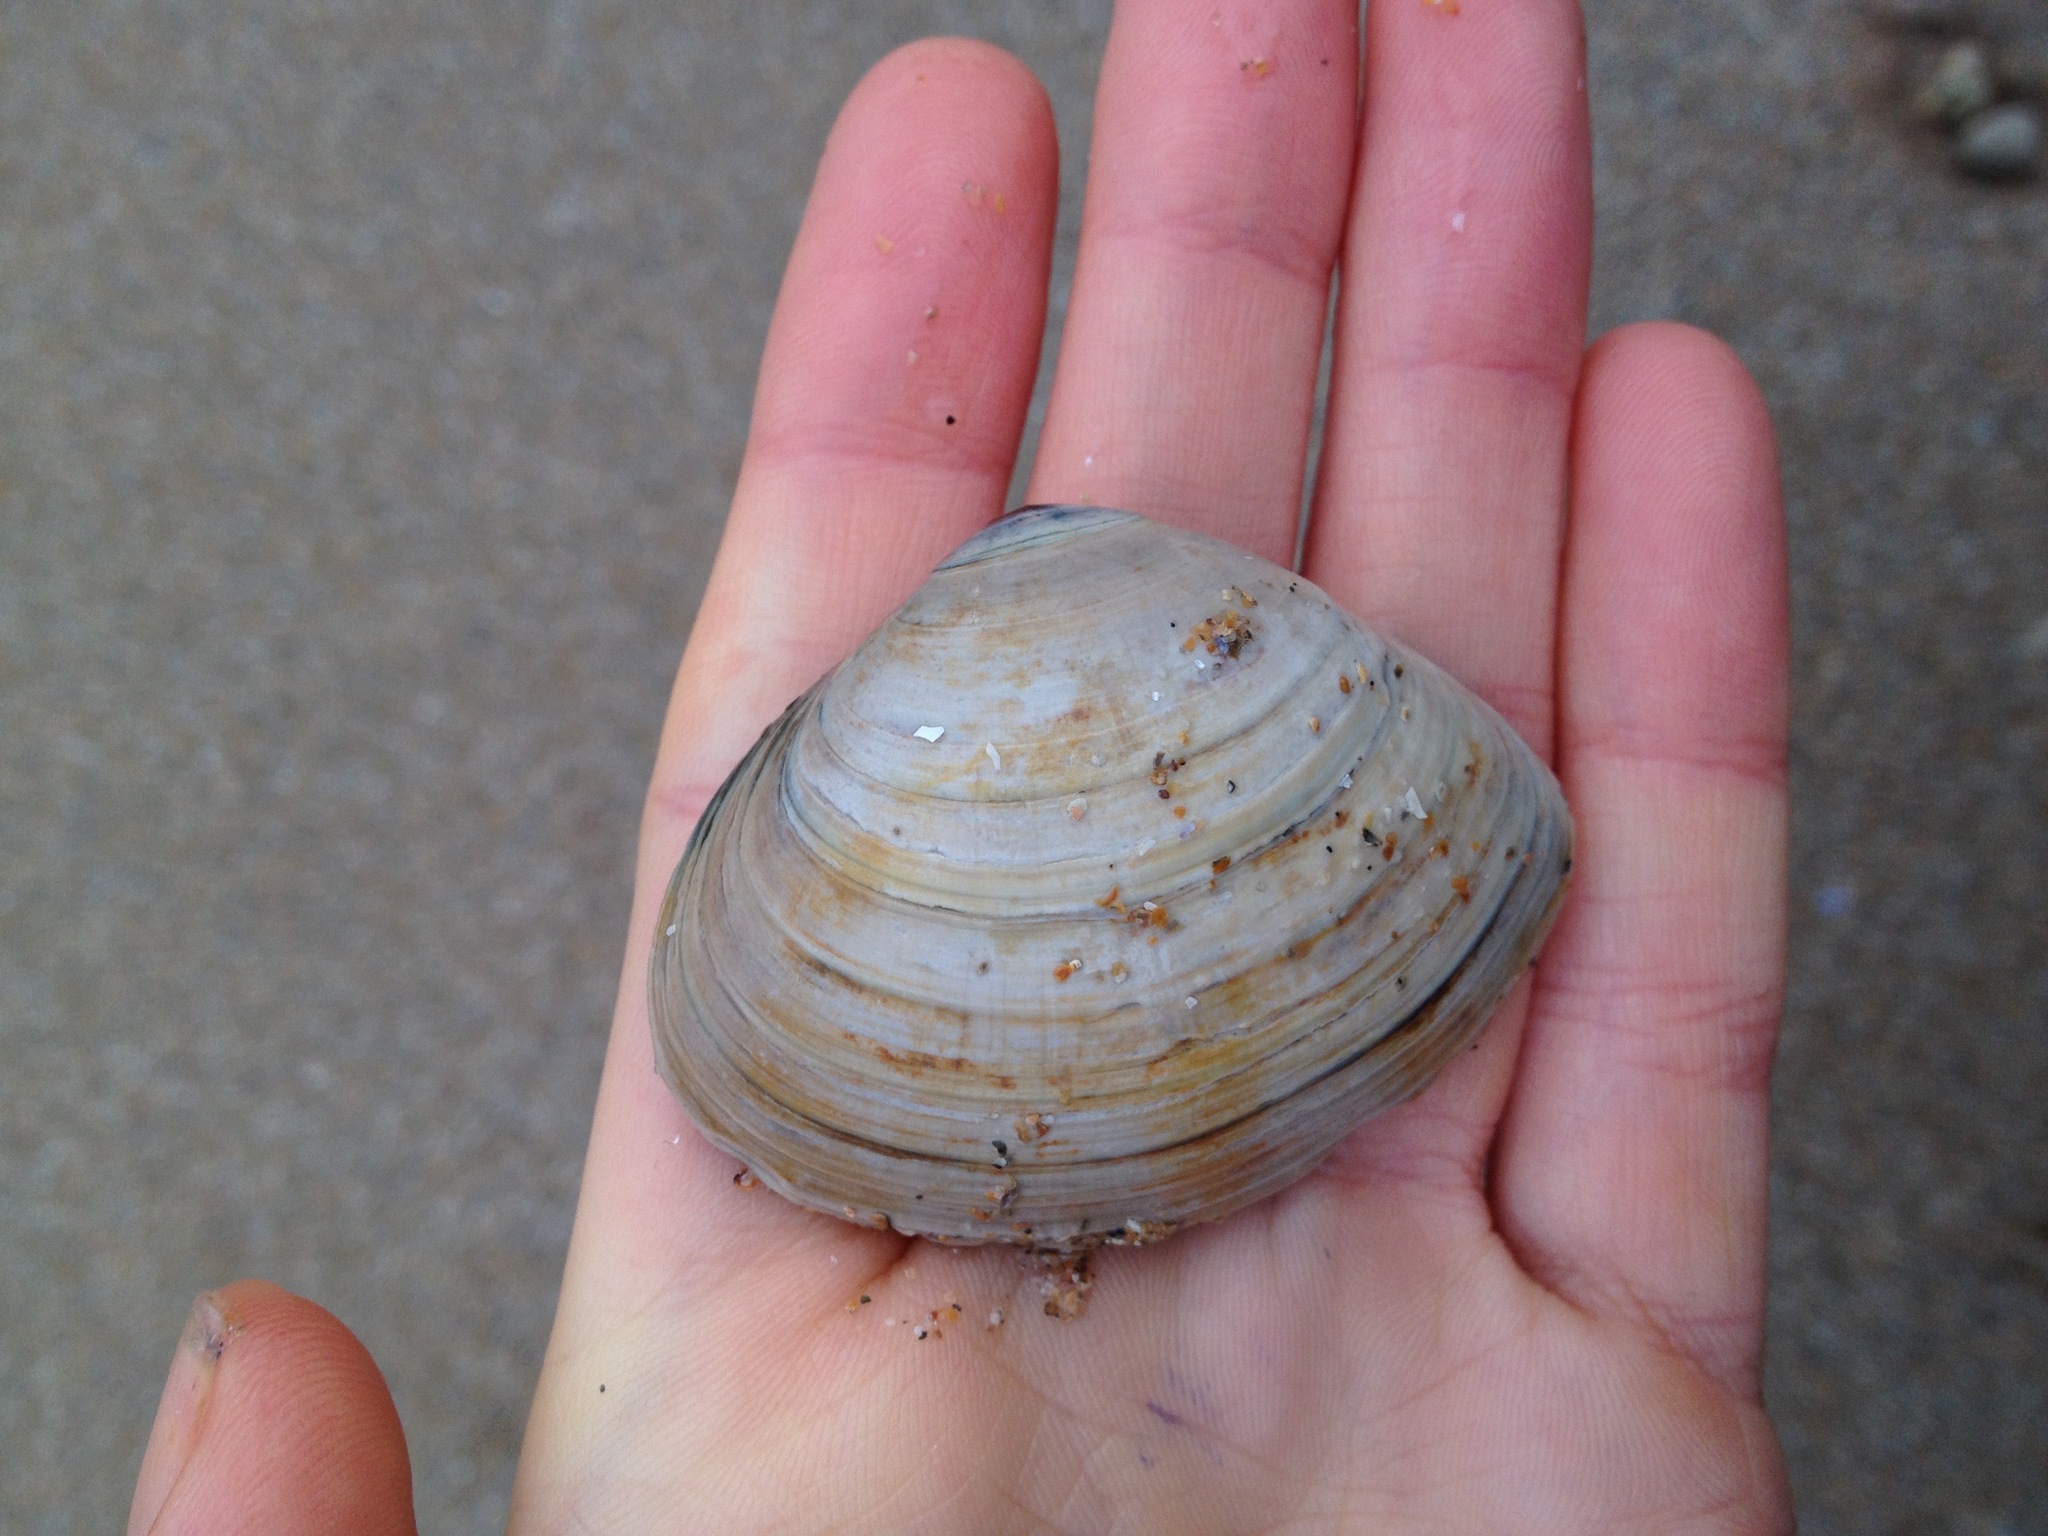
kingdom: Animalia
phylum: Mollusca
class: Bivalvia
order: Venerida
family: Mactridae
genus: Spisula
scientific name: Spisula solida
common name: Thick trough shell
